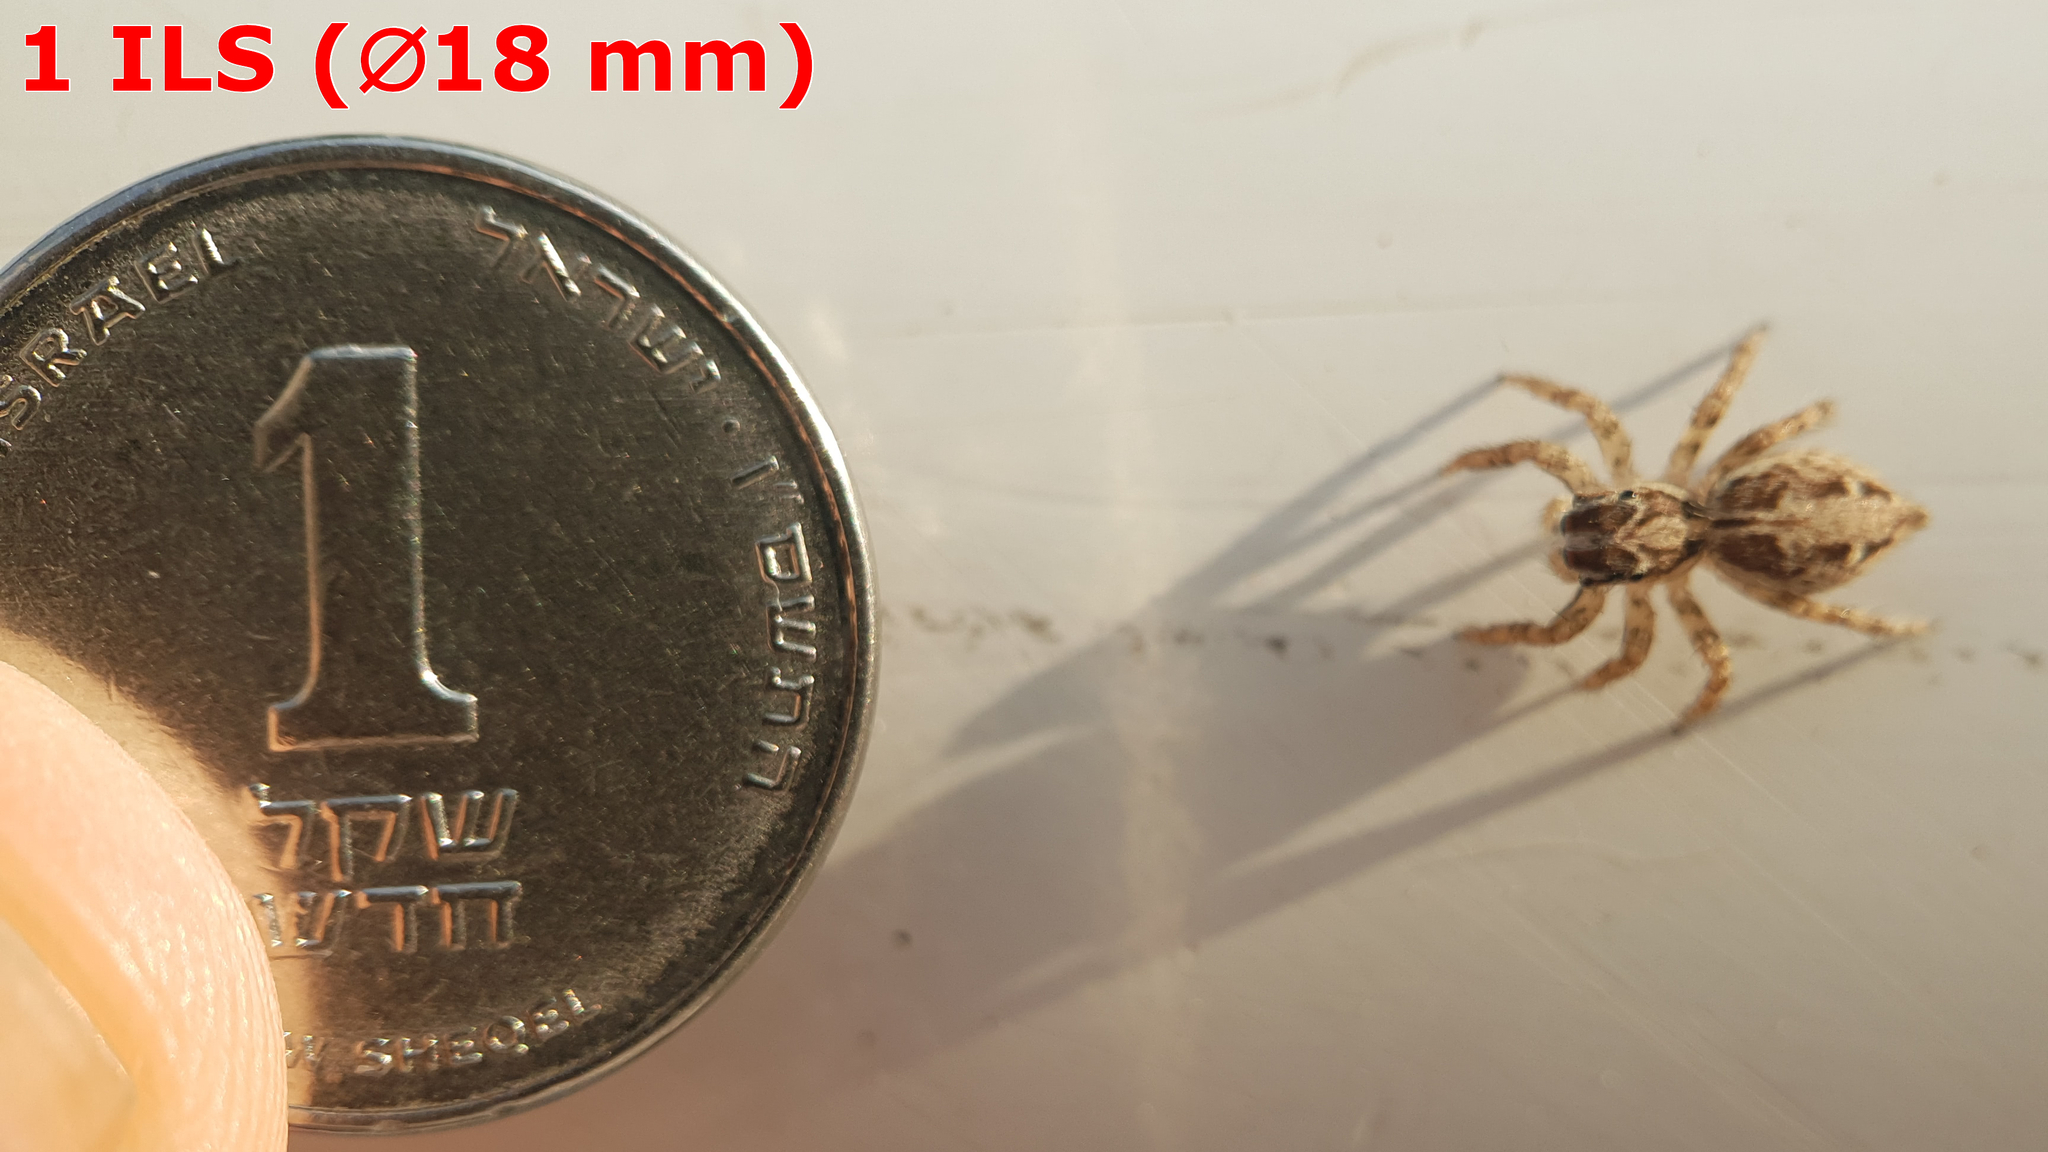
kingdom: Animalia
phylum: Arthropoda
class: Arachnida
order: Araneae
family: Salticidae
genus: Plexippus
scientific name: Plexippus paykulli
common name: Pantropical jumper
